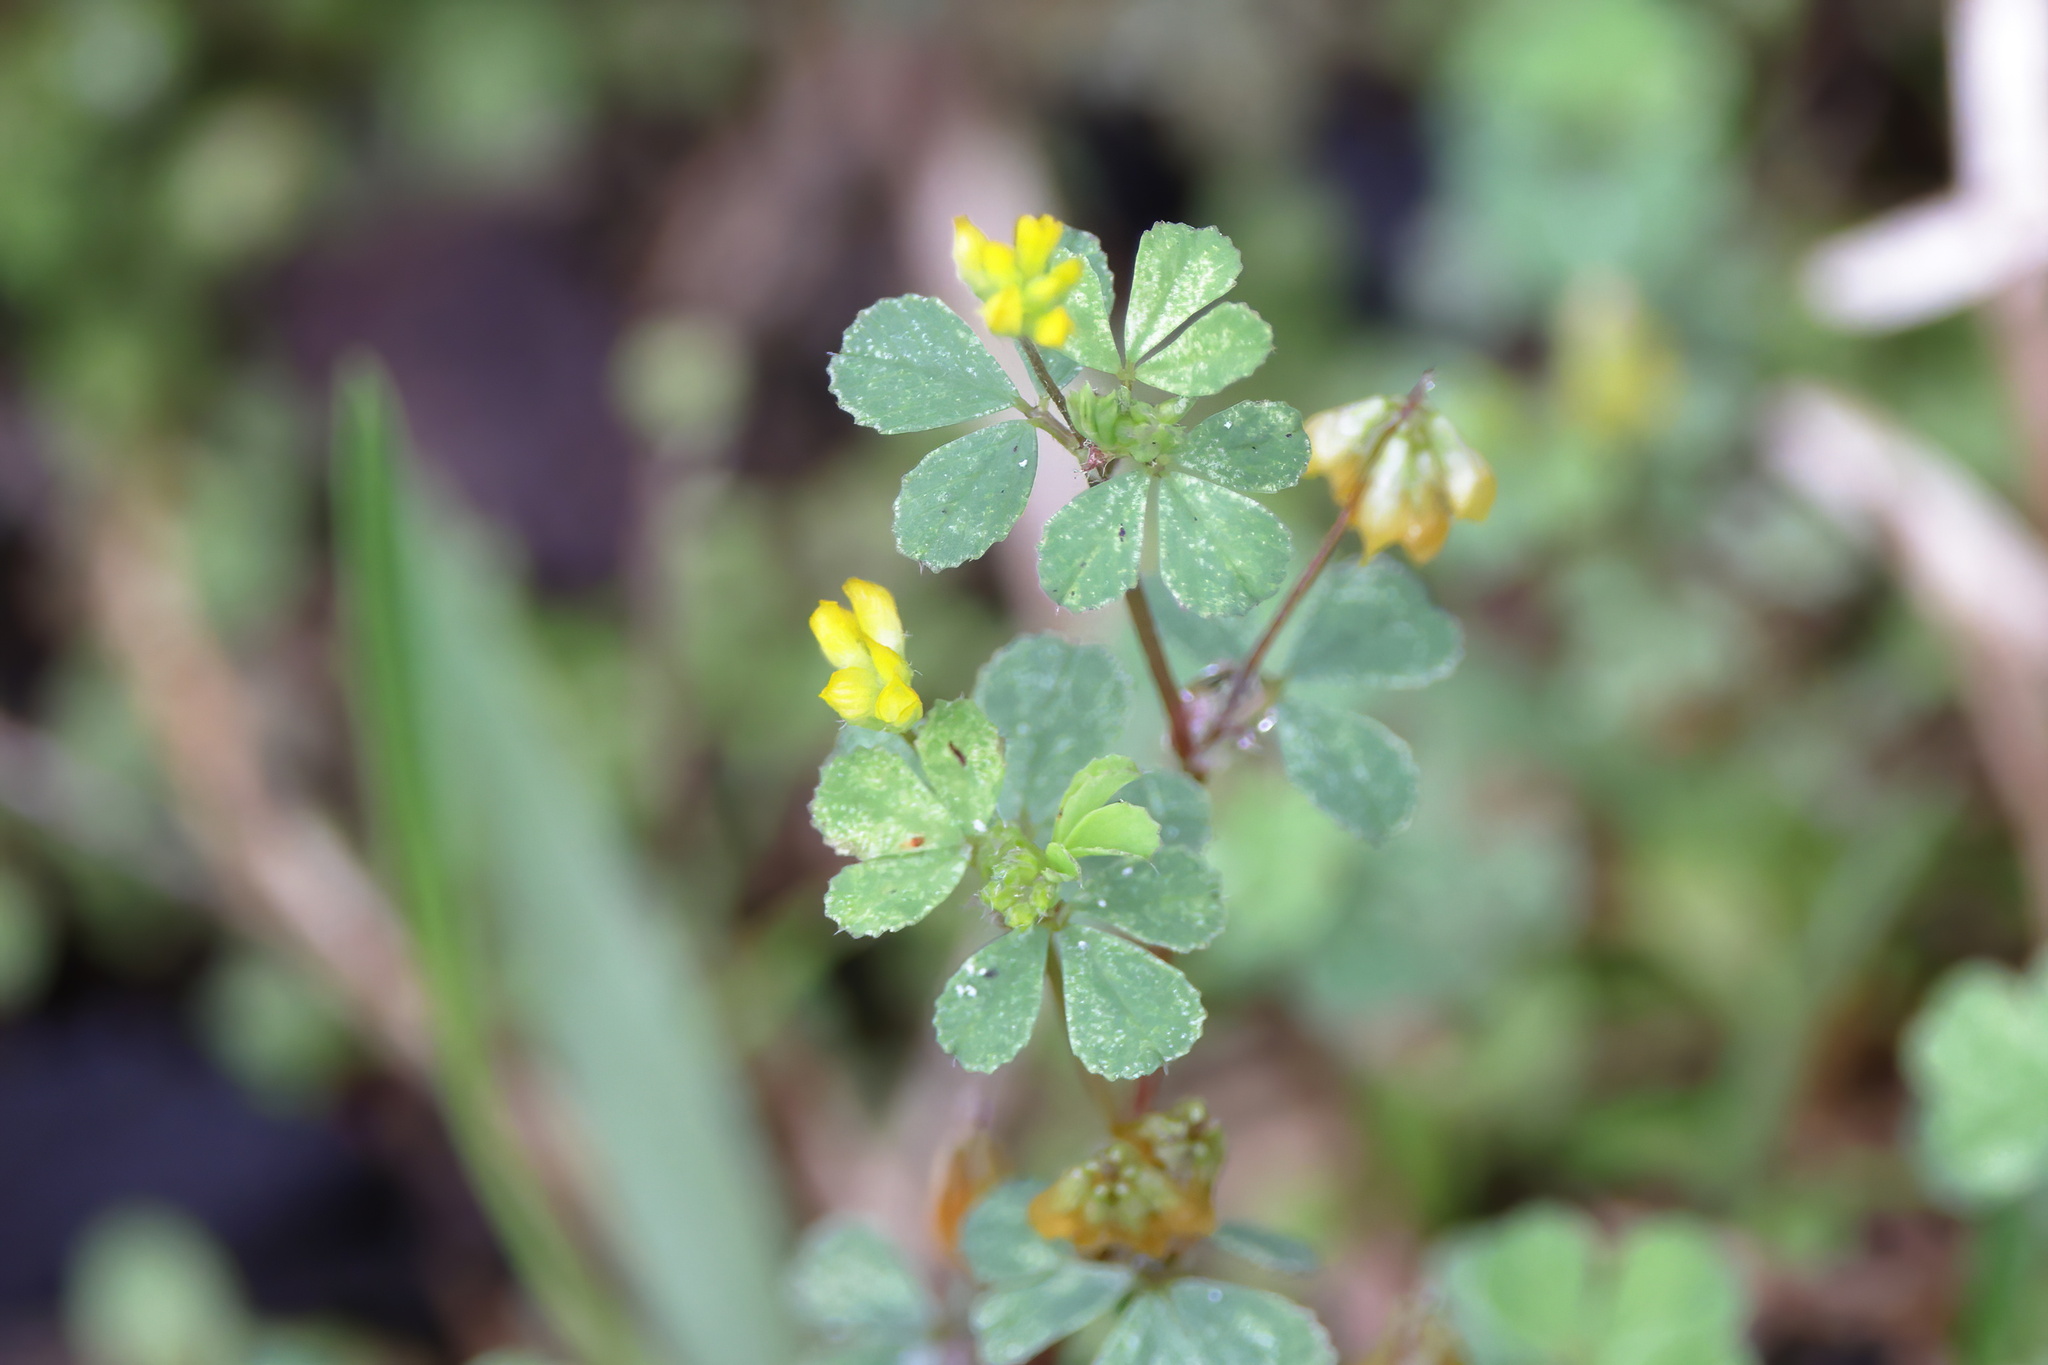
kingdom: Plantae
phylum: Tracheophyta
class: Magnoliopsida
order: Fabales
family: Fabaceae
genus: Trifolium
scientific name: Trifolium dubium
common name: Suckling clover
